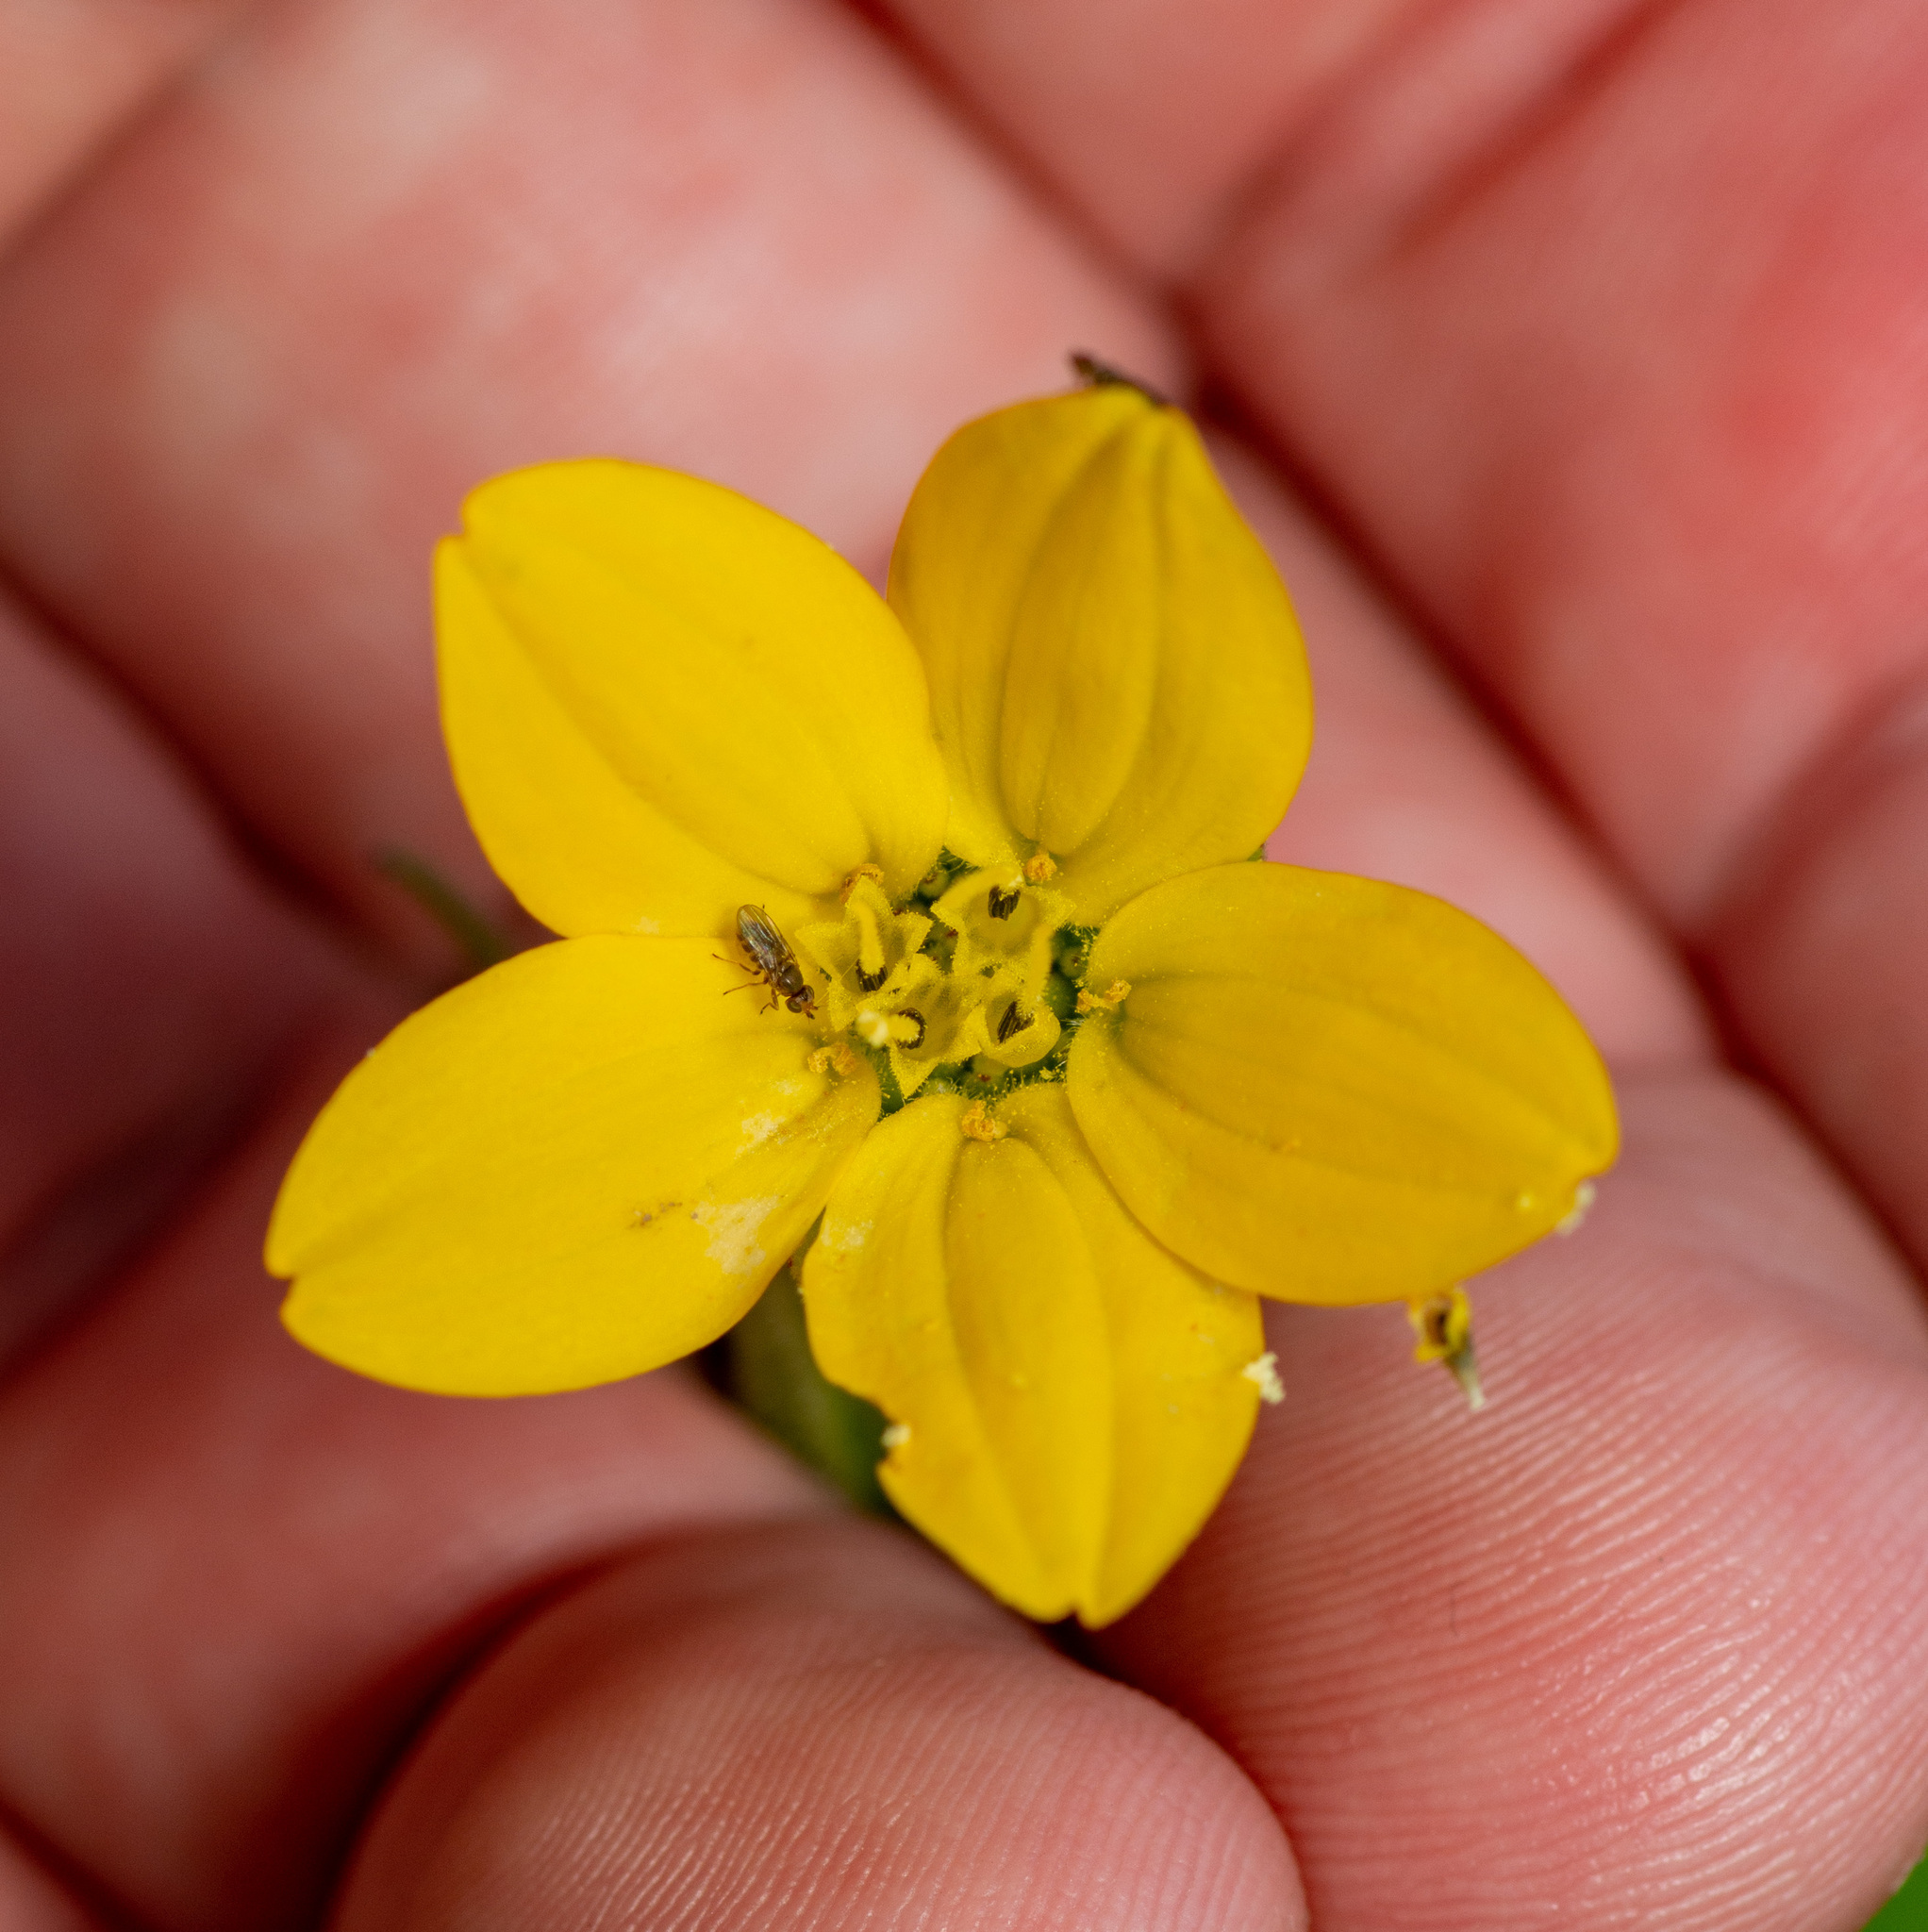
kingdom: Plantae
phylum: Tracheophyta
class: Magnoliopsida
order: Asterales
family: Asteraceae
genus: Lindheimera
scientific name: Lindheimera texana
